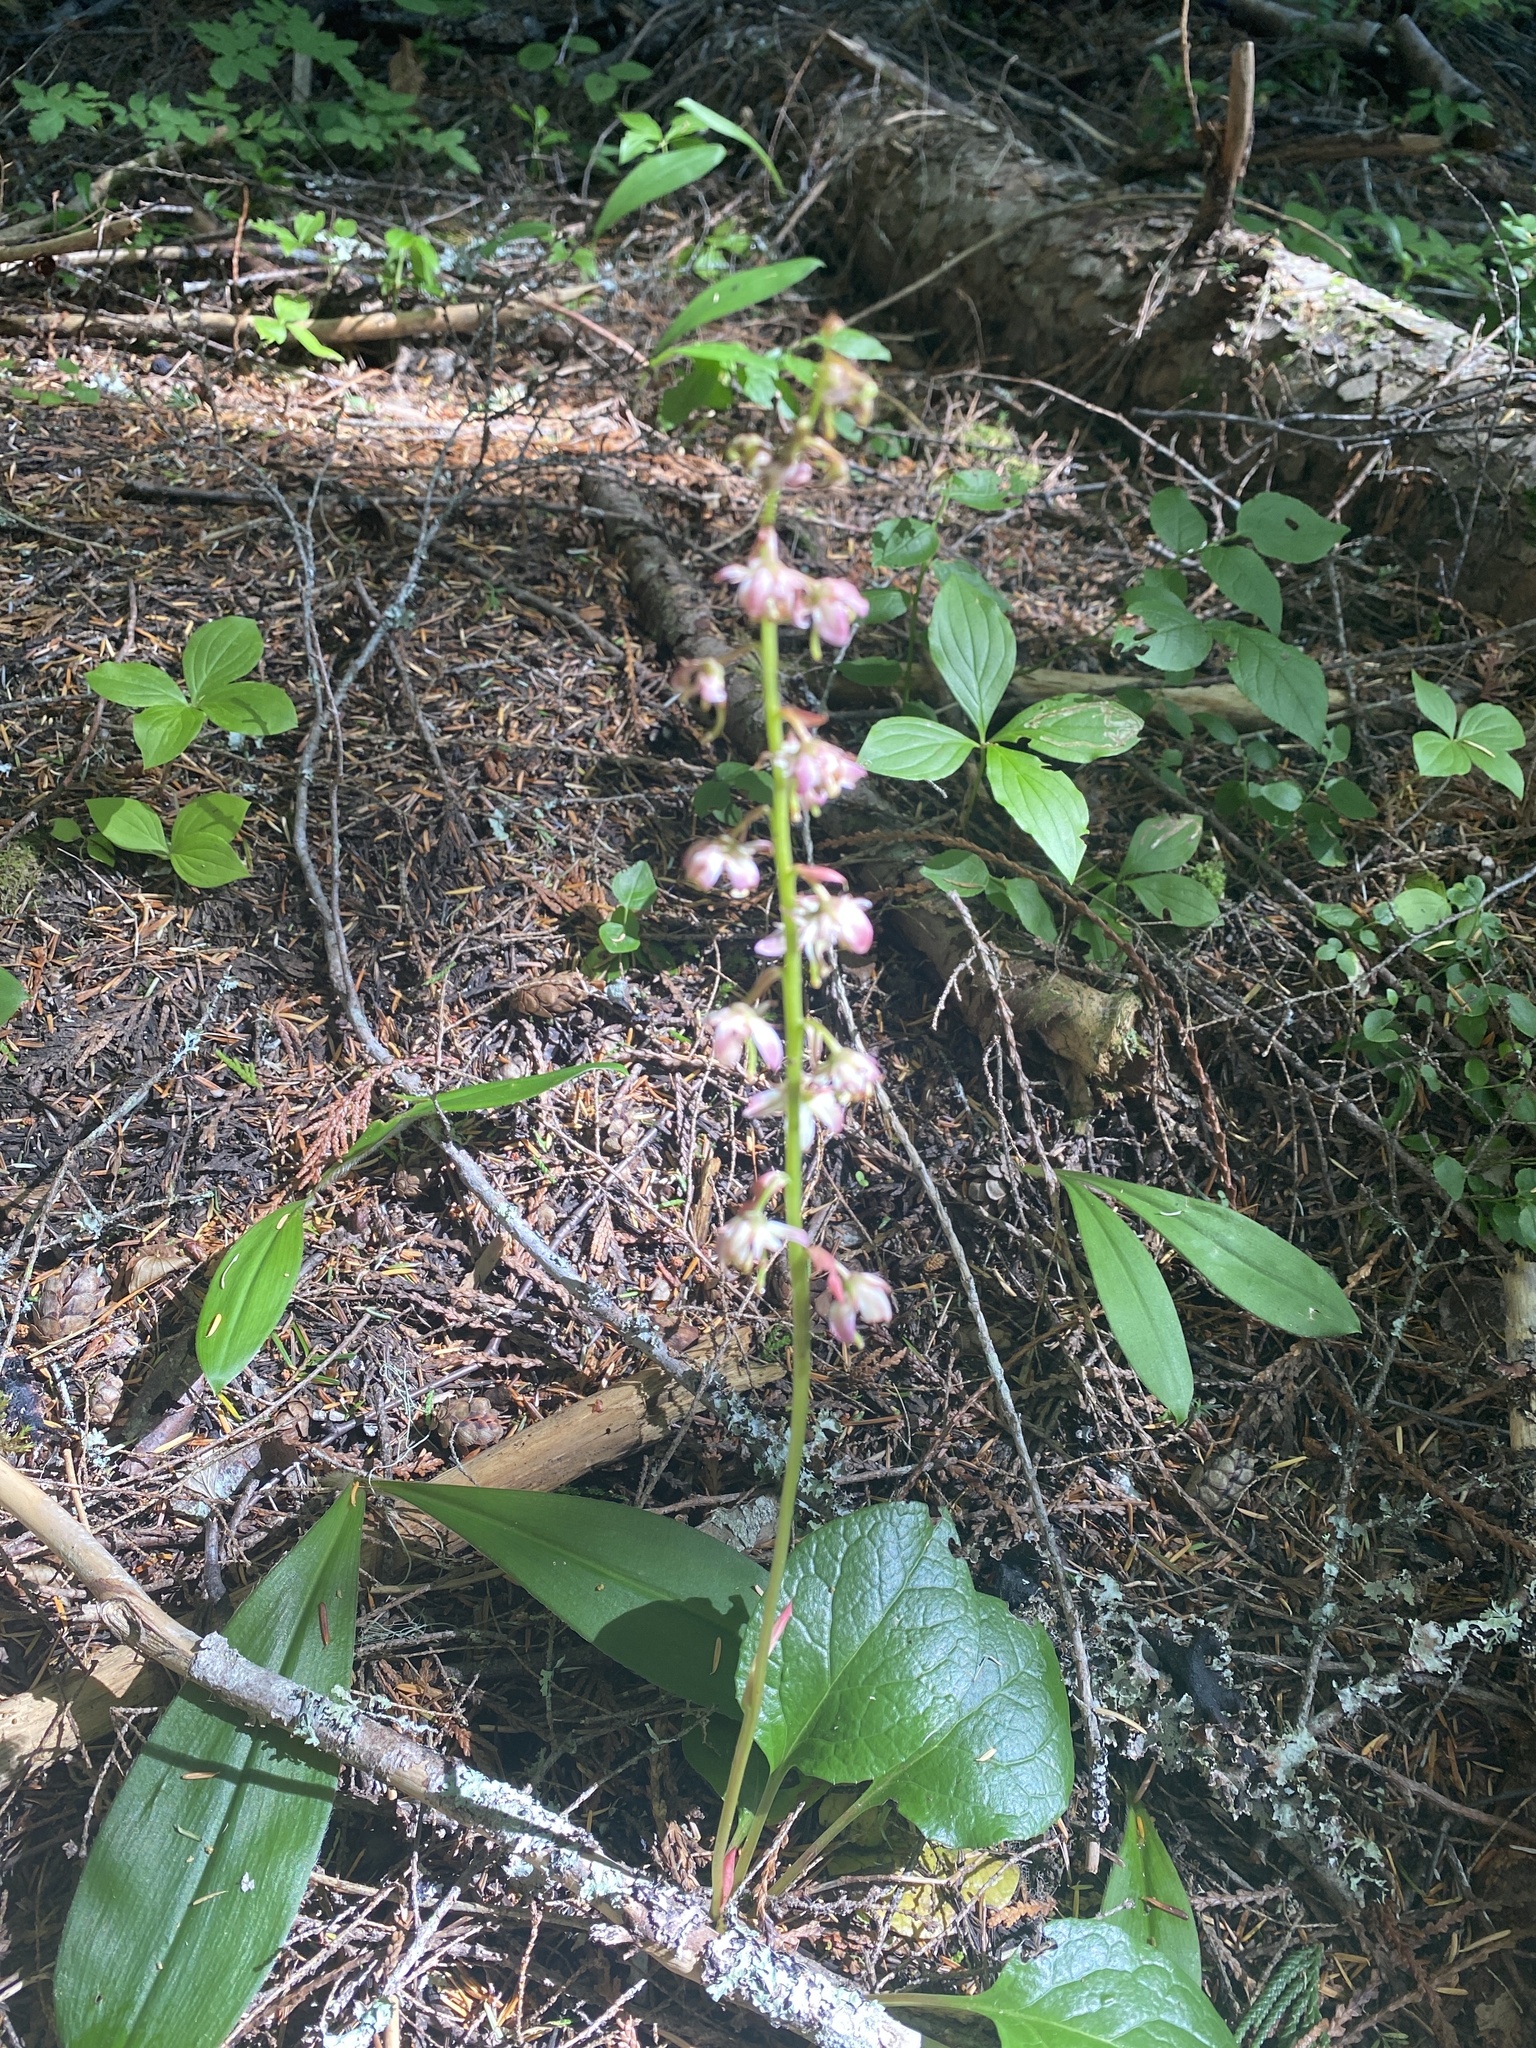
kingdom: Plantae
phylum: Tracheophyta
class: Magnoliopsida
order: Ericales
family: Ericaceae
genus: Pyrola
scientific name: Pyrola asarifolia
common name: Bog wintergreen
